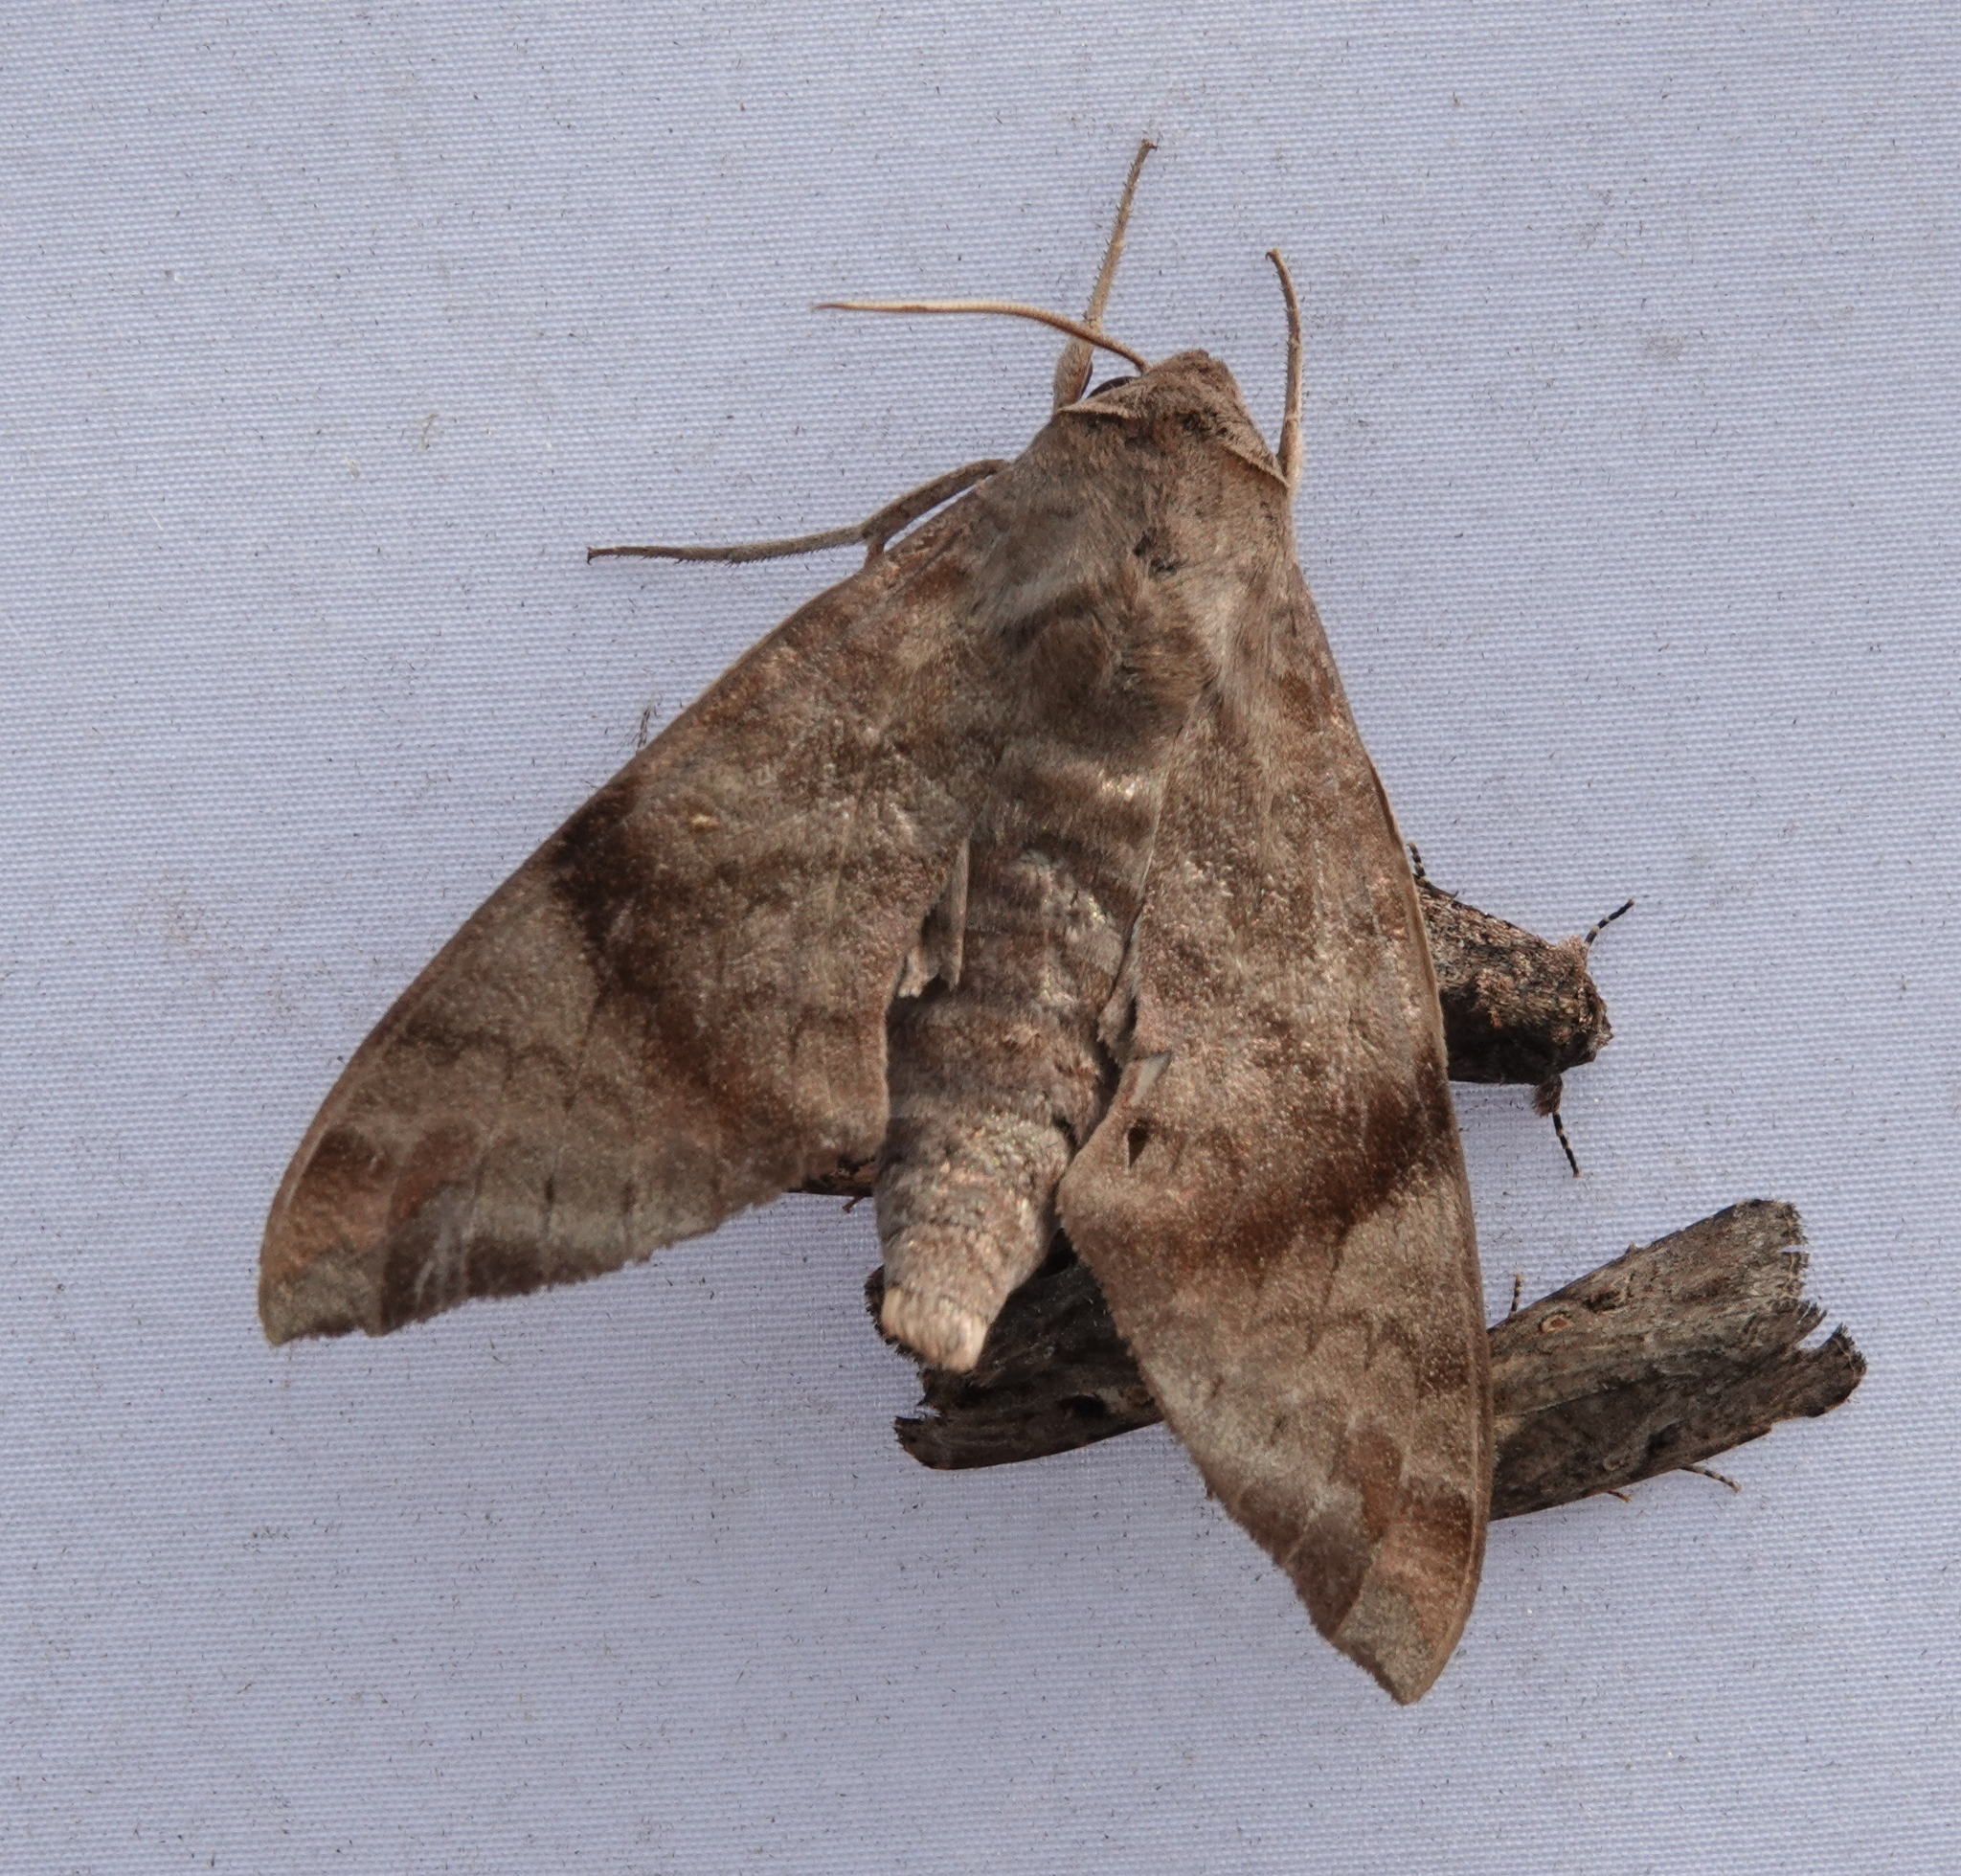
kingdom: Animalia
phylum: Arthropoda
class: Insecta
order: Lepidoptera
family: Sphingidae
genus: Acosmeryx
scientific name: Acosmeryx shervillii
